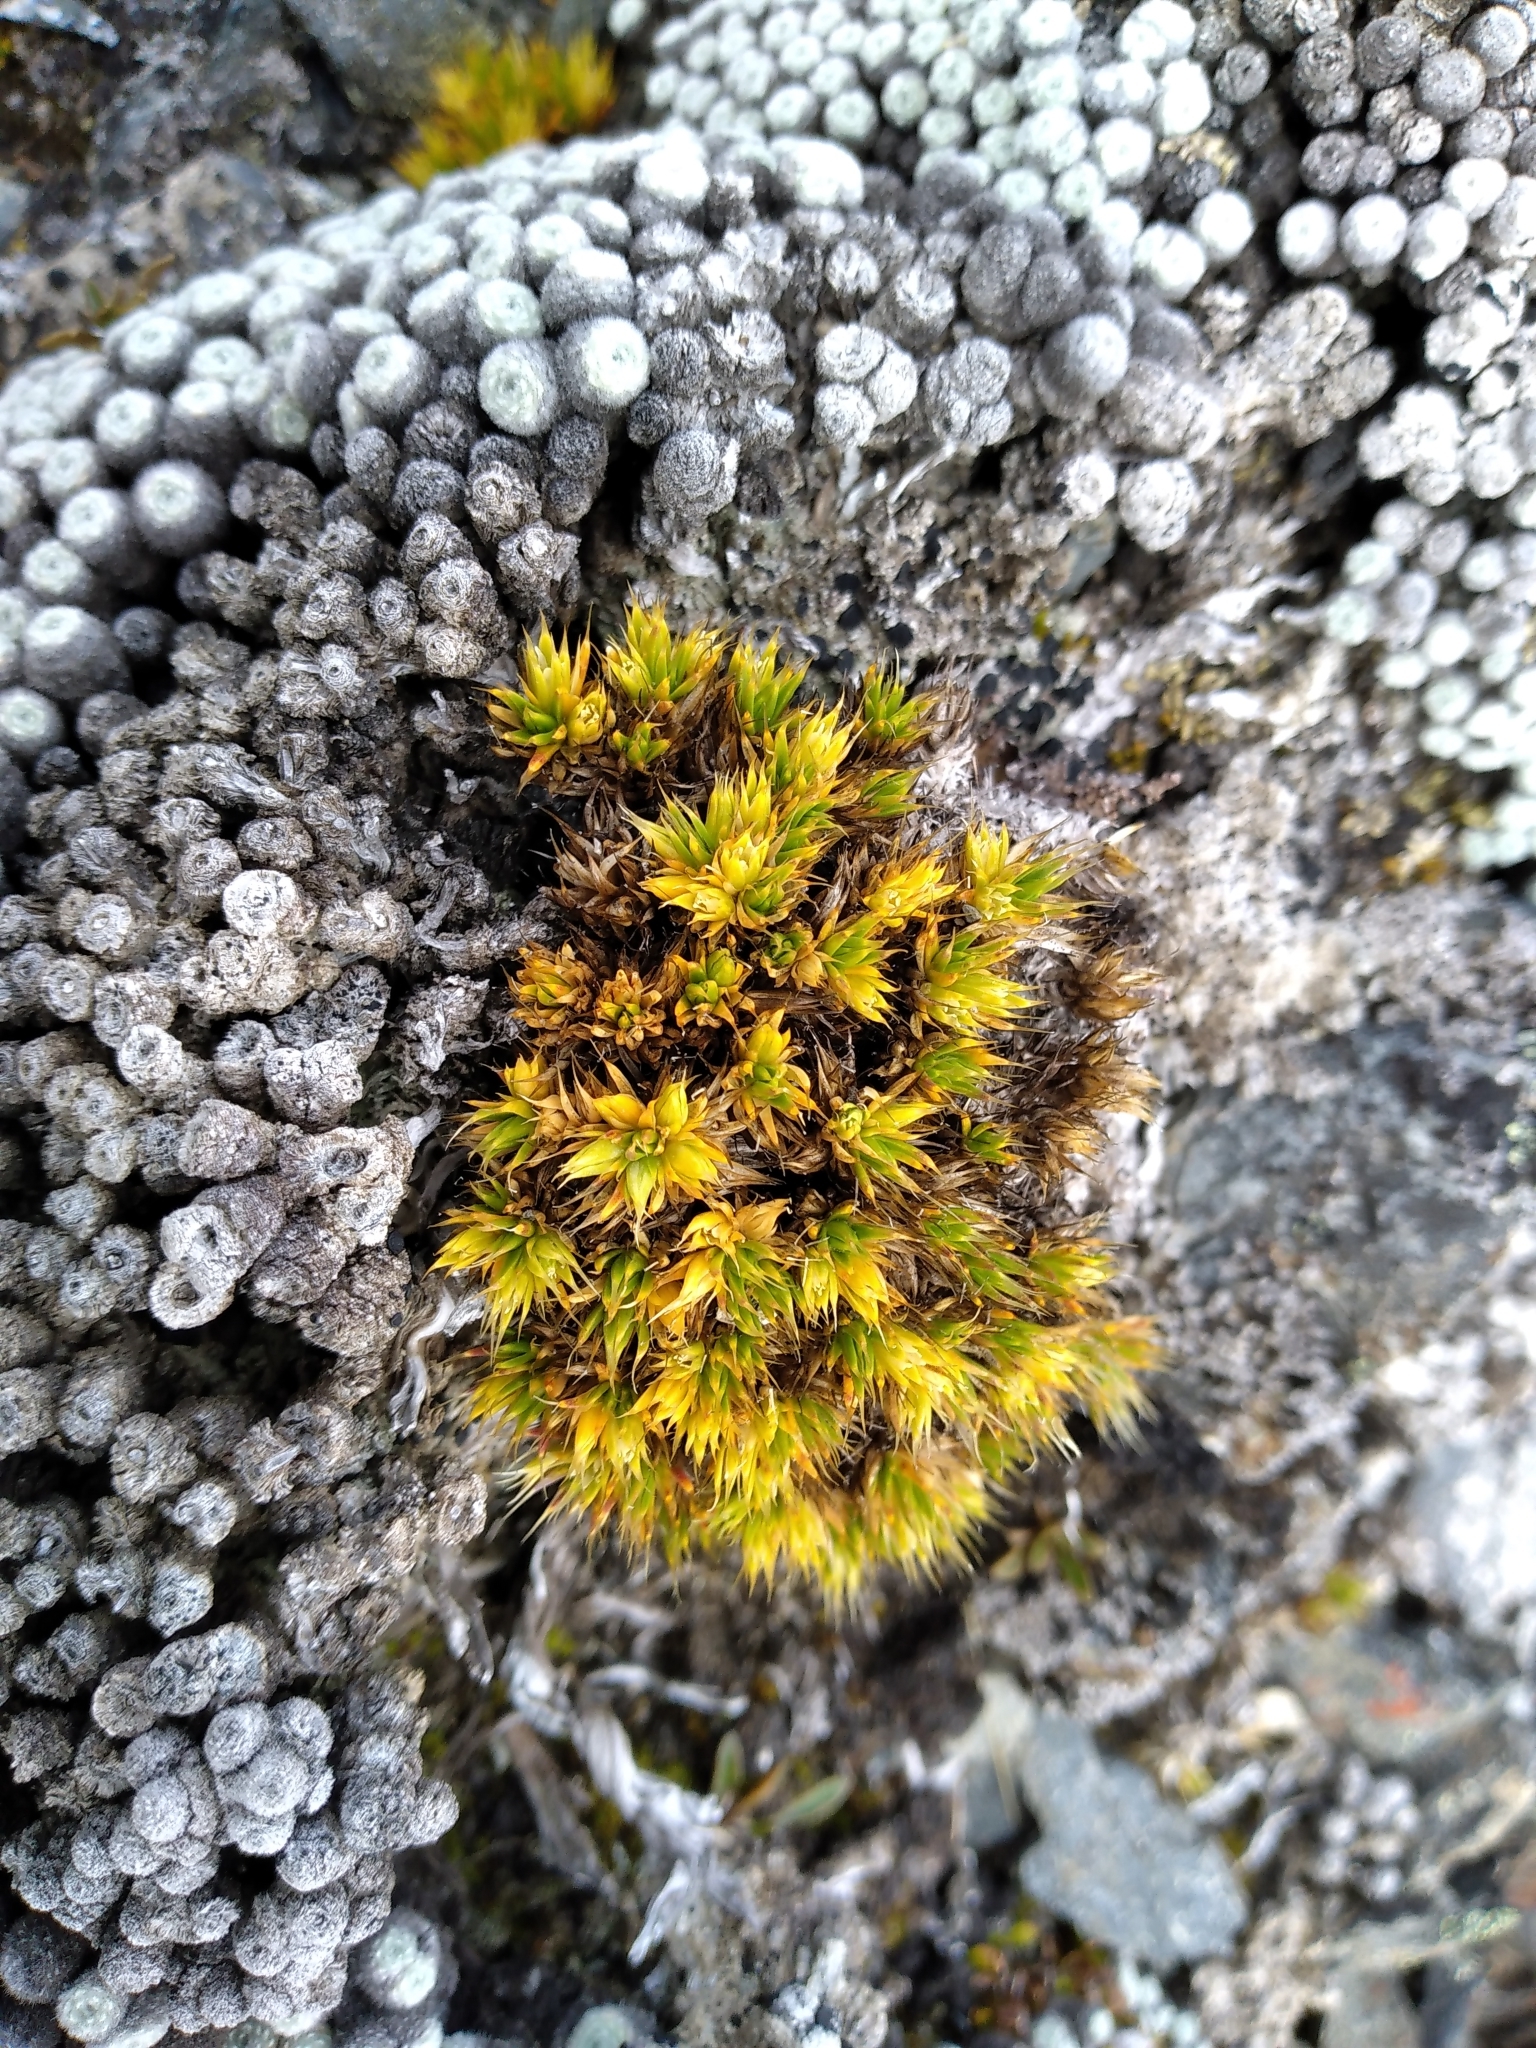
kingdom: Plantae
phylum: Tracheophyta
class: Magnoliopsida
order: Caryophyllales
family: Caryophyllaceae
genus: Colobanthus
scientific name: Colobanthus acicularis
